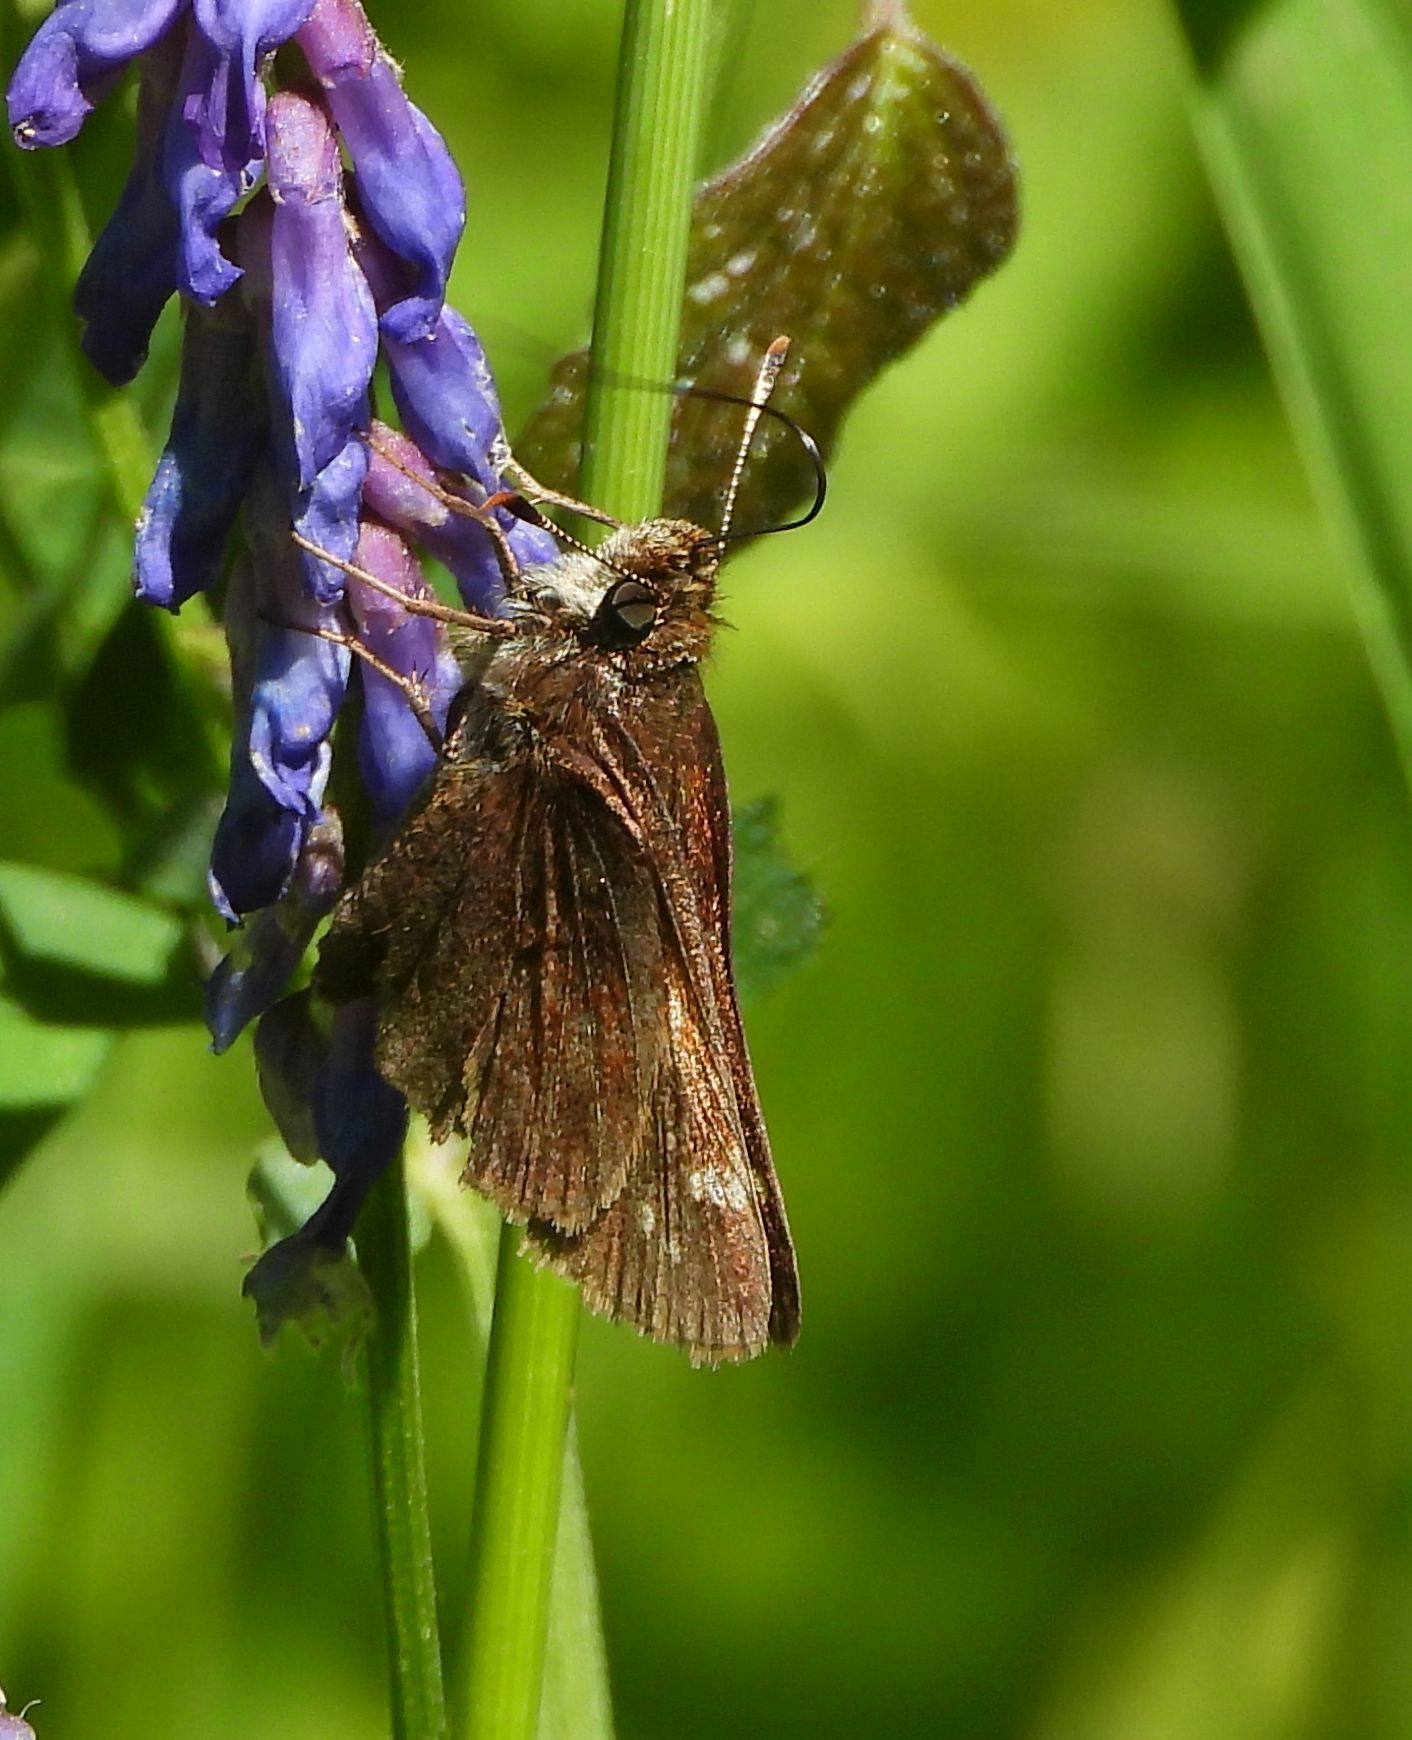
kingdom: Animalia
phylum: Arthropoda
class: Insecta
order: Lepidoptera
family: Hesperiidae
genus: Lon
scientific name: Lon hobomok
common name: Hobomok skipper
